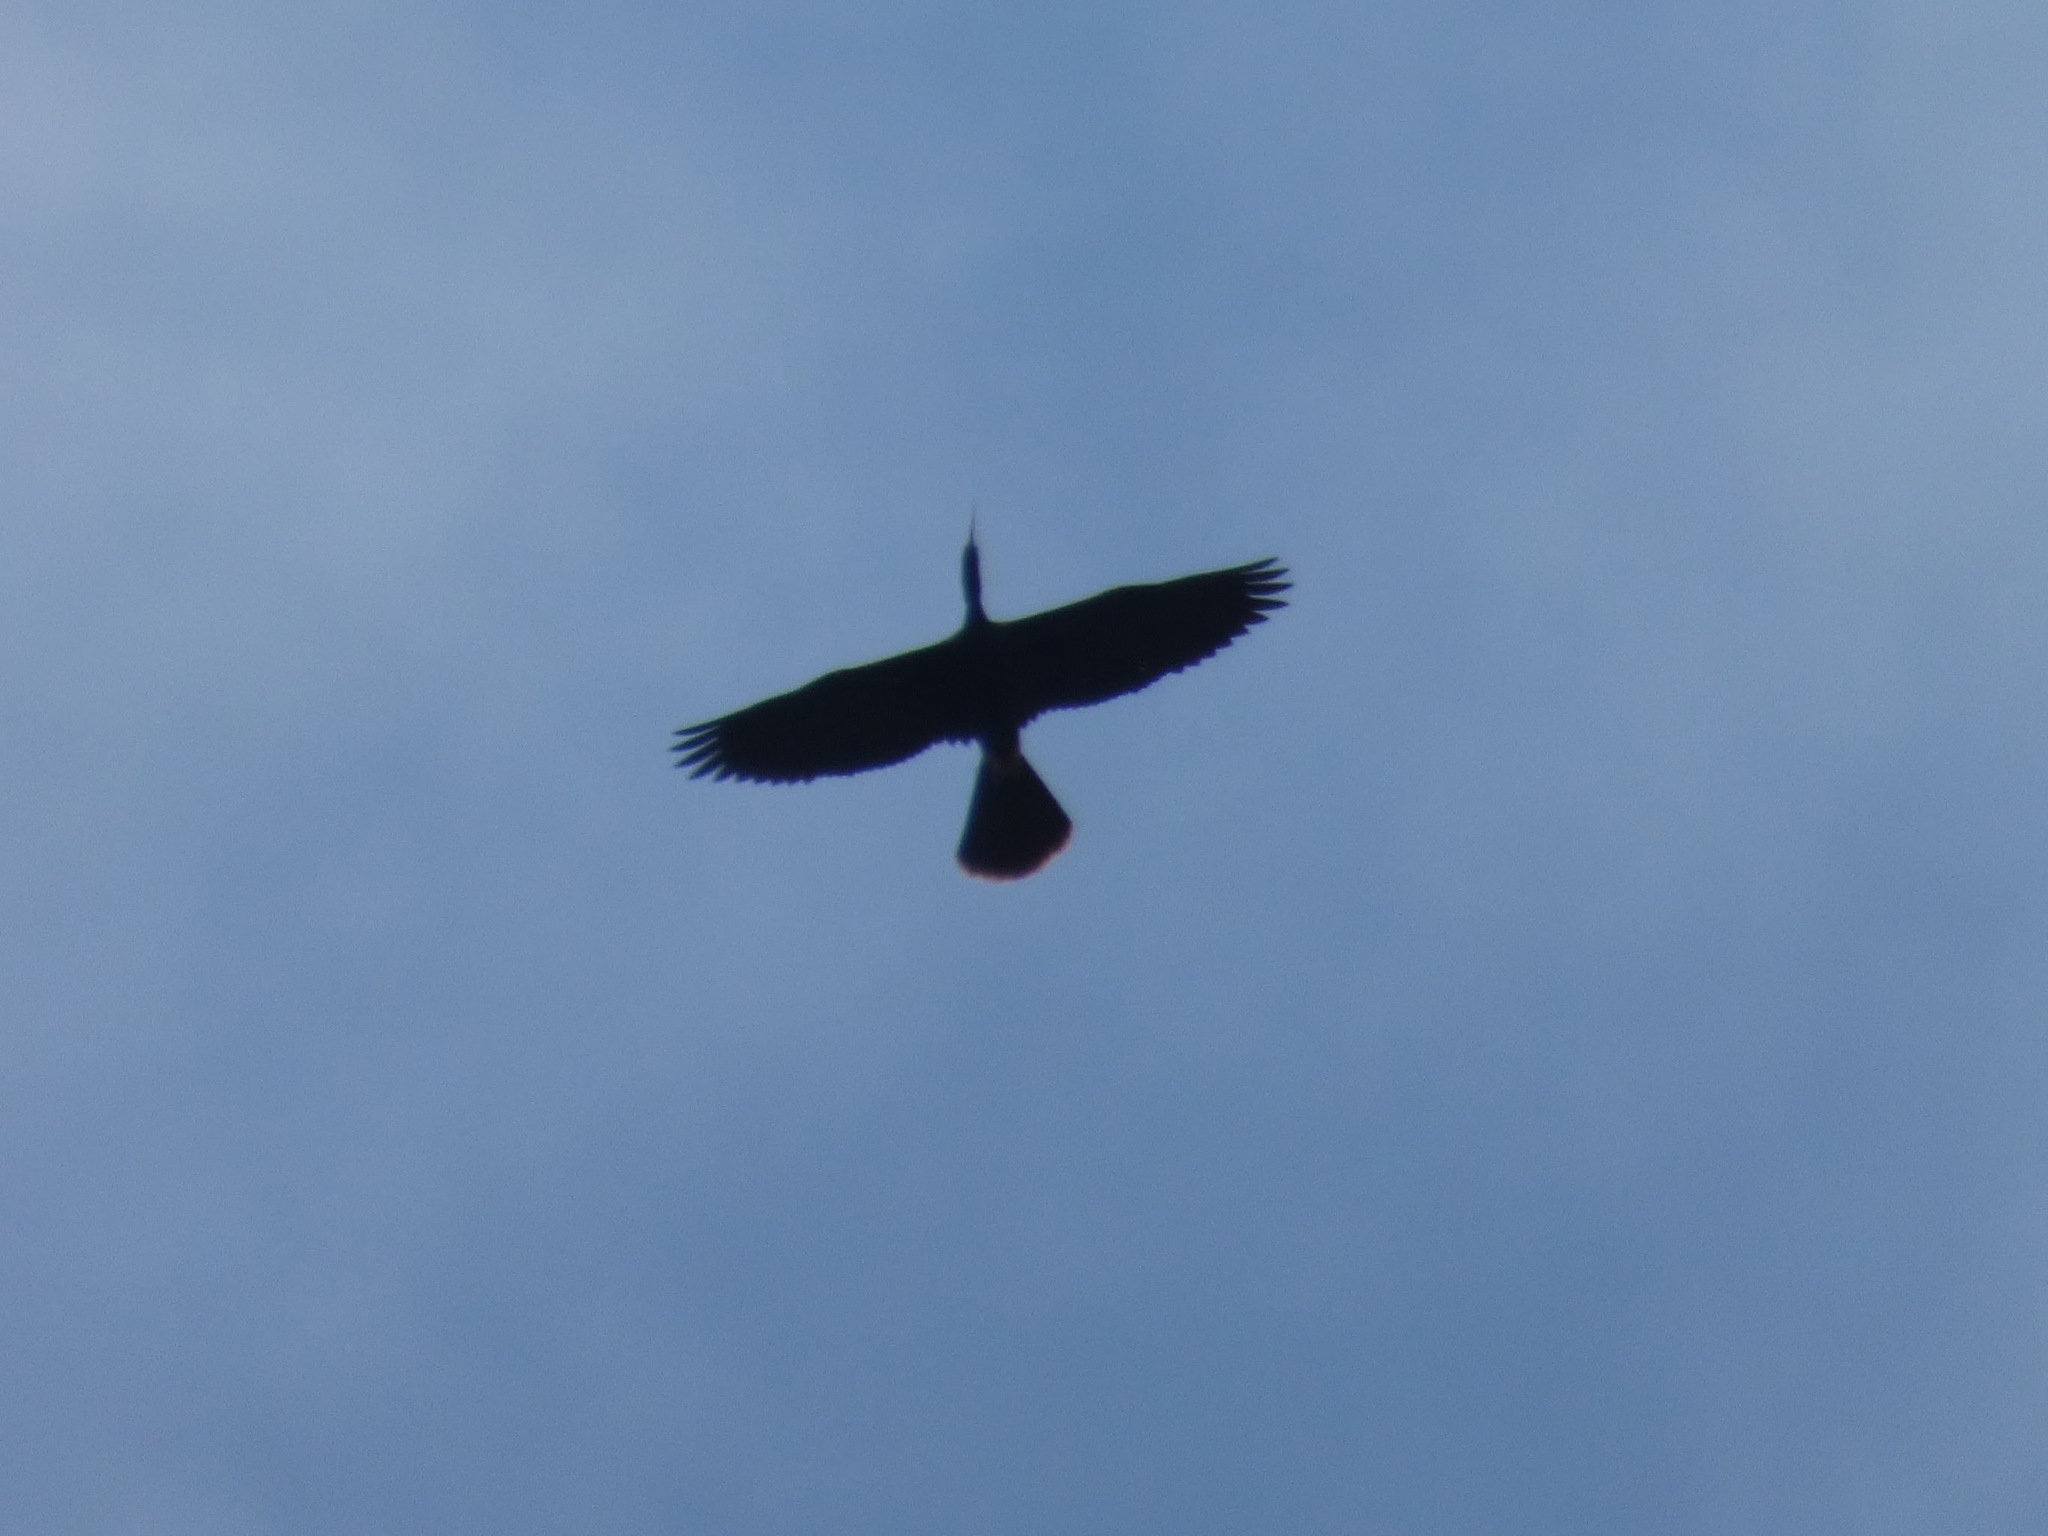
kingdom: Animalia
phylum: Chordata
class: Aves
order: Suliformes
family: Anhingidae
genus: Anhinga
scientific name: Anhinga anhinga
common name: Anhinga
